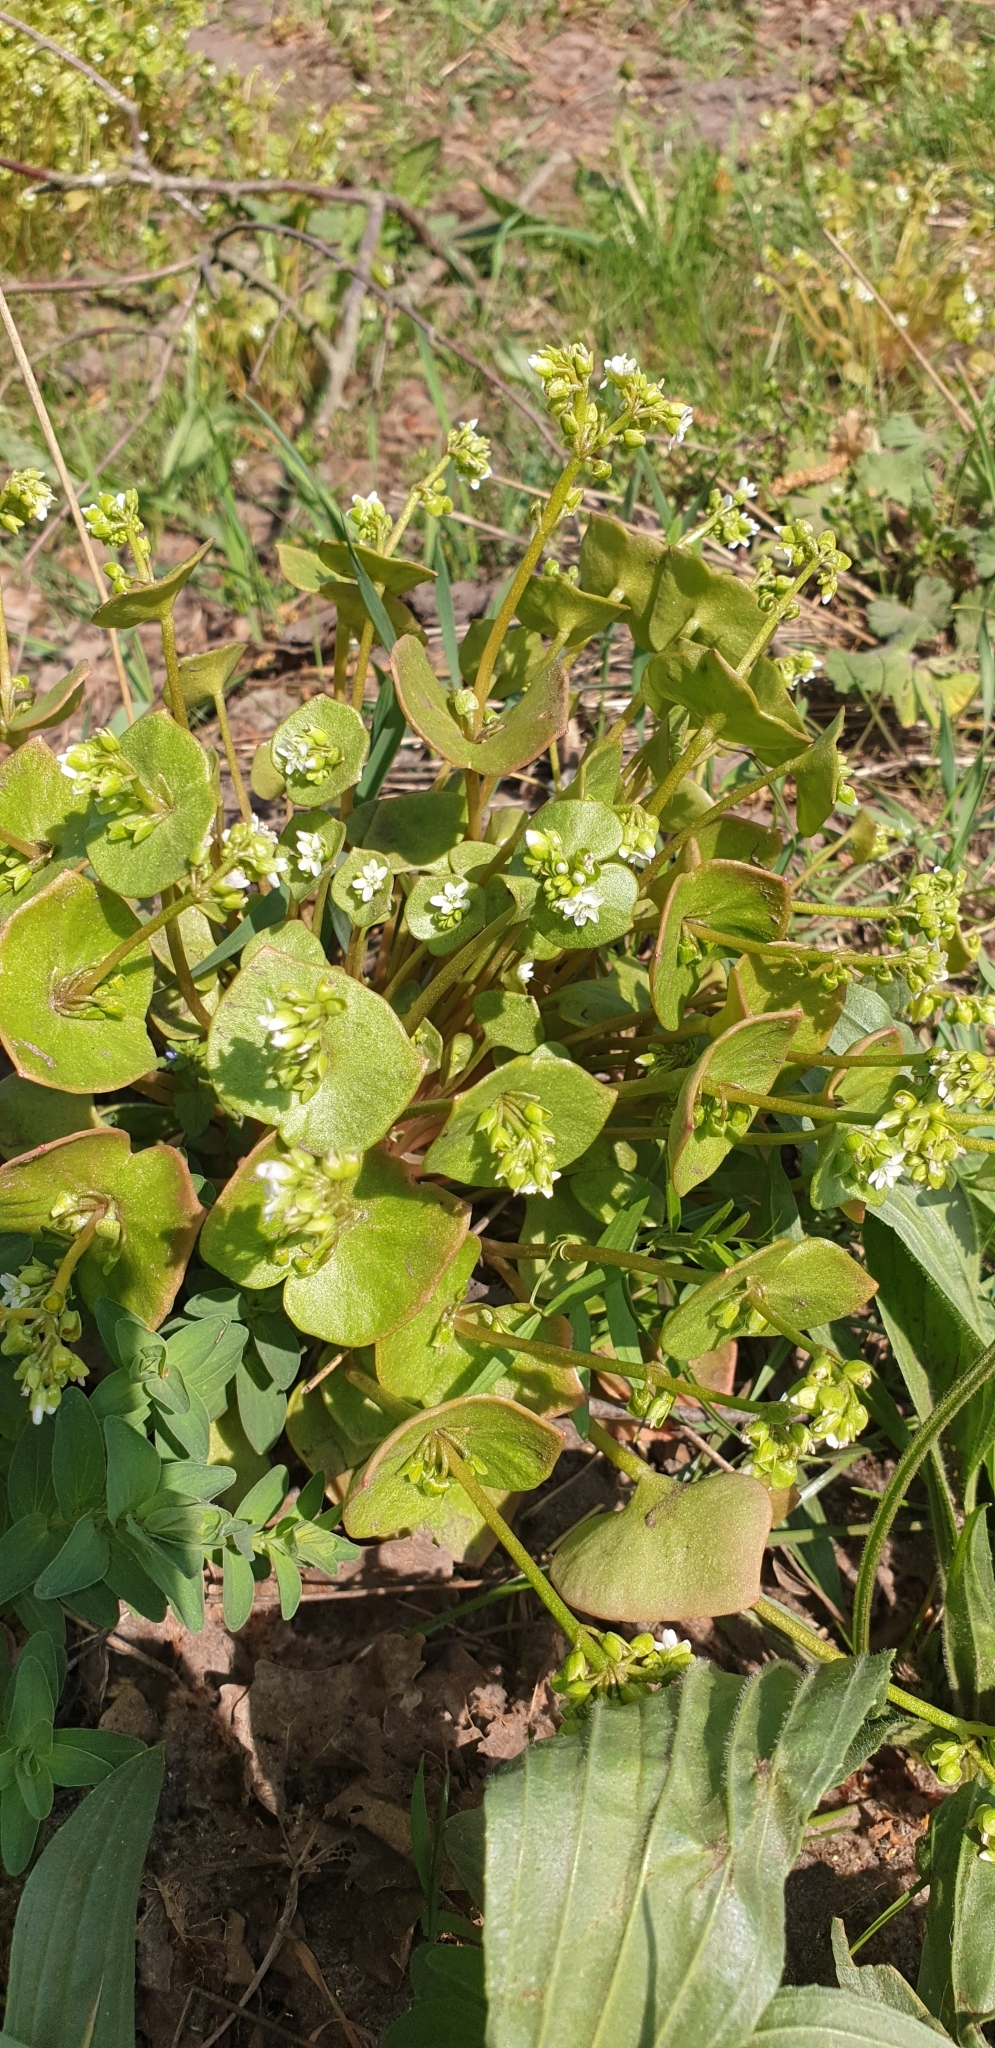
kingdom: Plantae
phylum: Tracheophyta
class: Magnoliopsida
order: Caryophyllales
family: Montiaceae
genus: Claytonia
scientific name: Claytonia perfoliata
